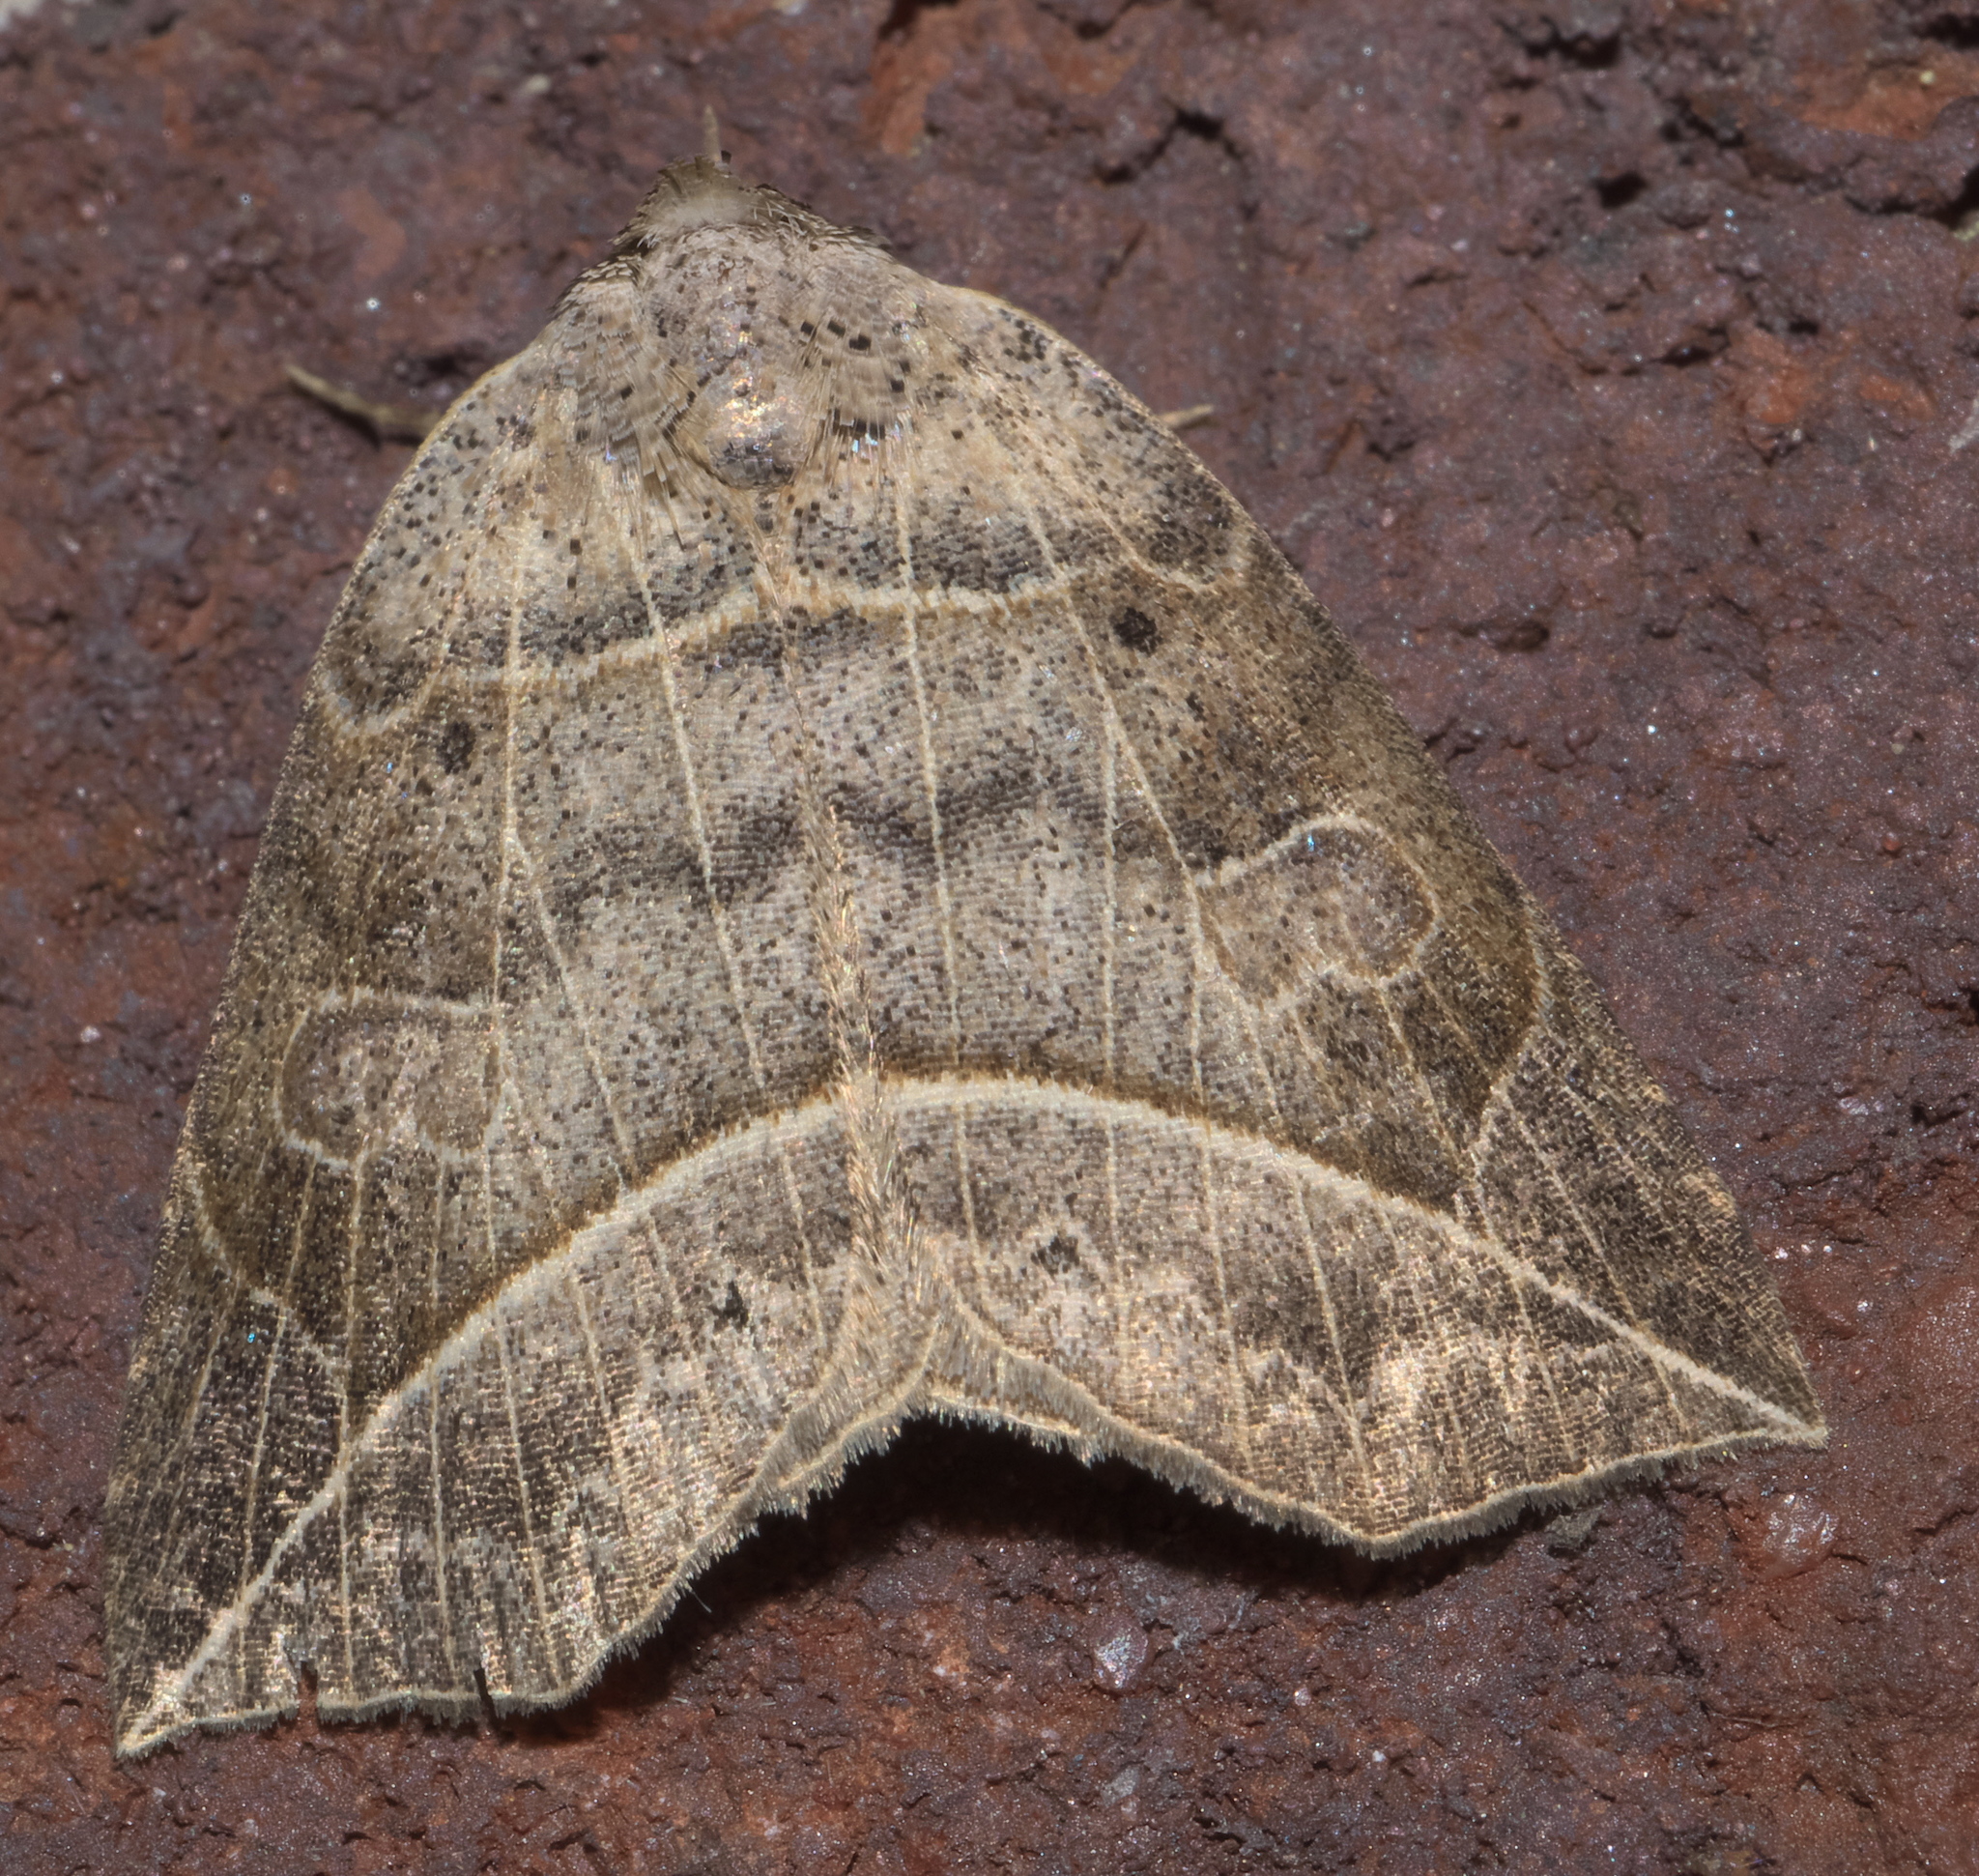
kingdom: Animalia
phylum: Arthropoda
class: Insecta
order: Lepidoptera
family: Erebidae
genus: Isogona
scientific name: Isogona tenuis
